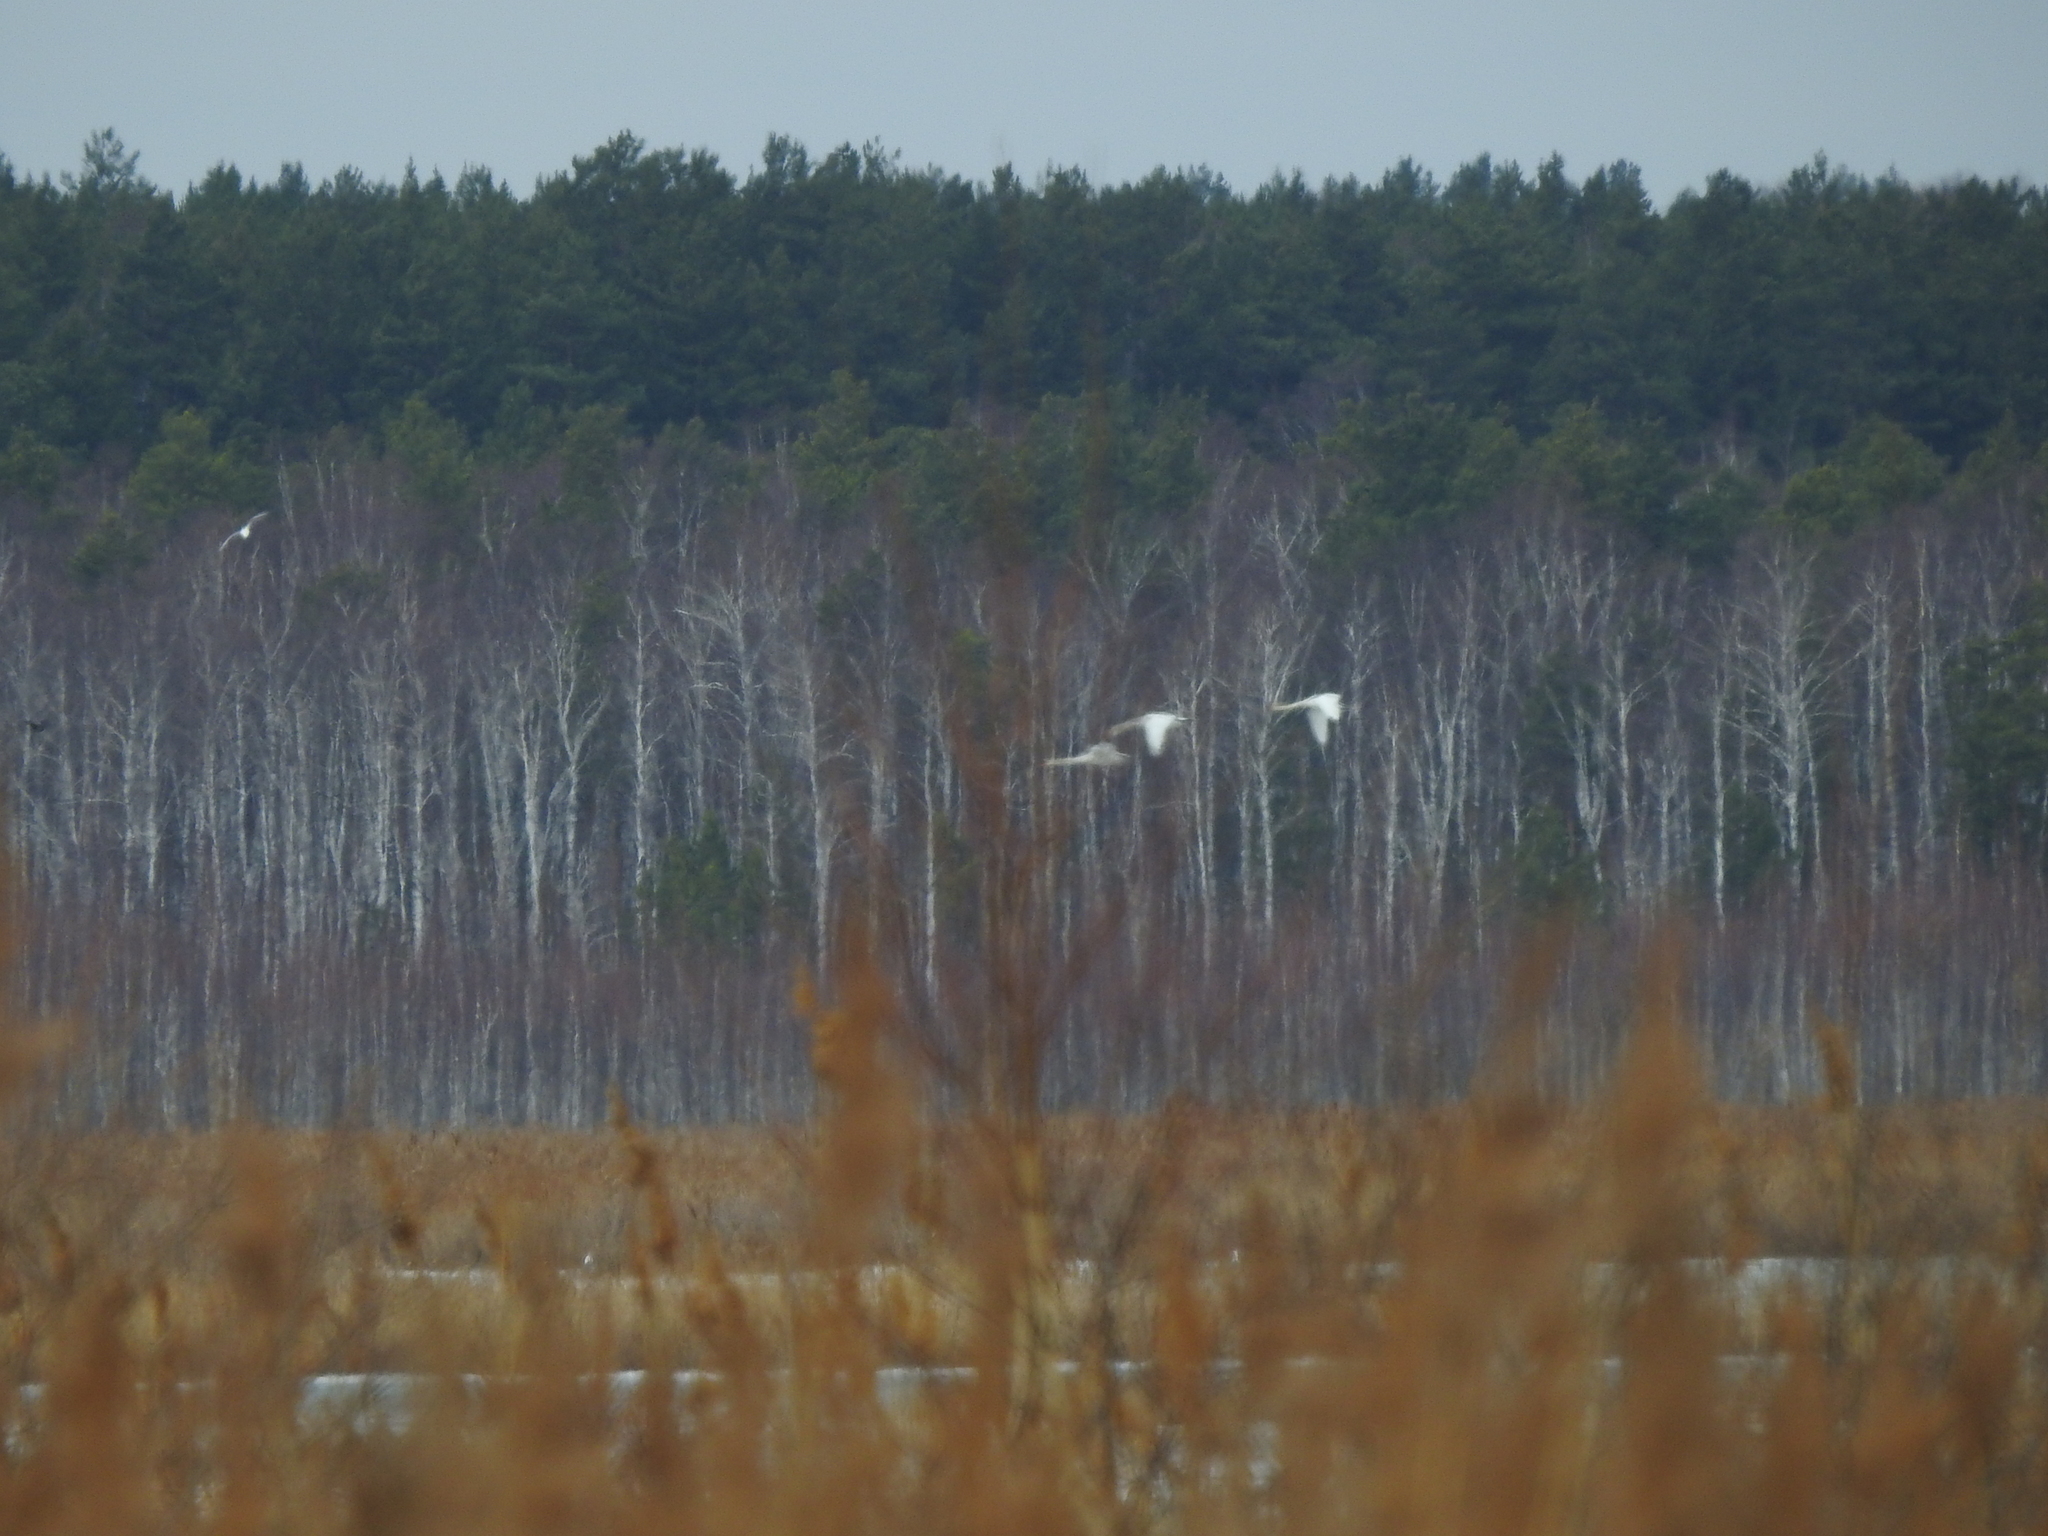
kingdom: Animalia
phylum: Chordata
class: Aves
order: Anseriformes
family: Anatidae
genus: Cygnus
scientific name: Cygnus olor
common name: Mute swan
